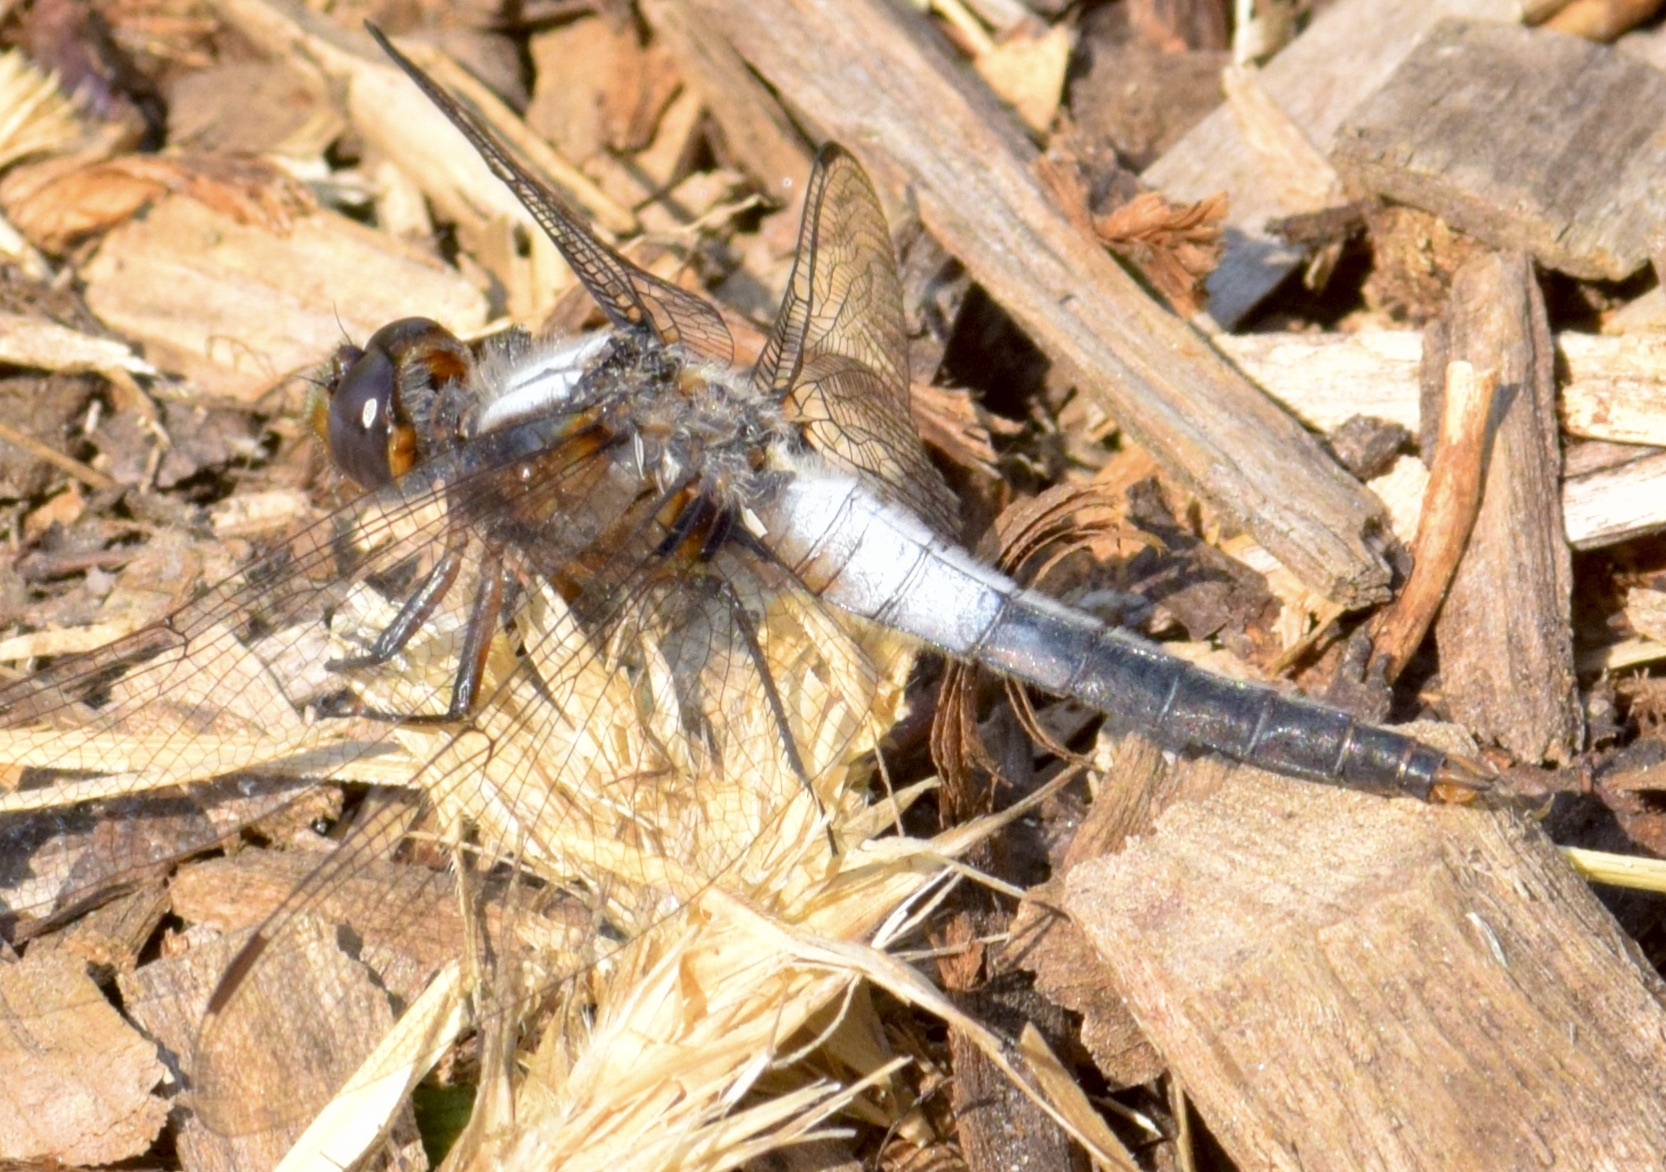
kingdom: Animalia
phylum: Arthropoda
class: Insecta
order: Odonata
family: Libellulidae
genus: Ladona
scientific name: Ladona julia
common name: Chalk-fronted corporal
